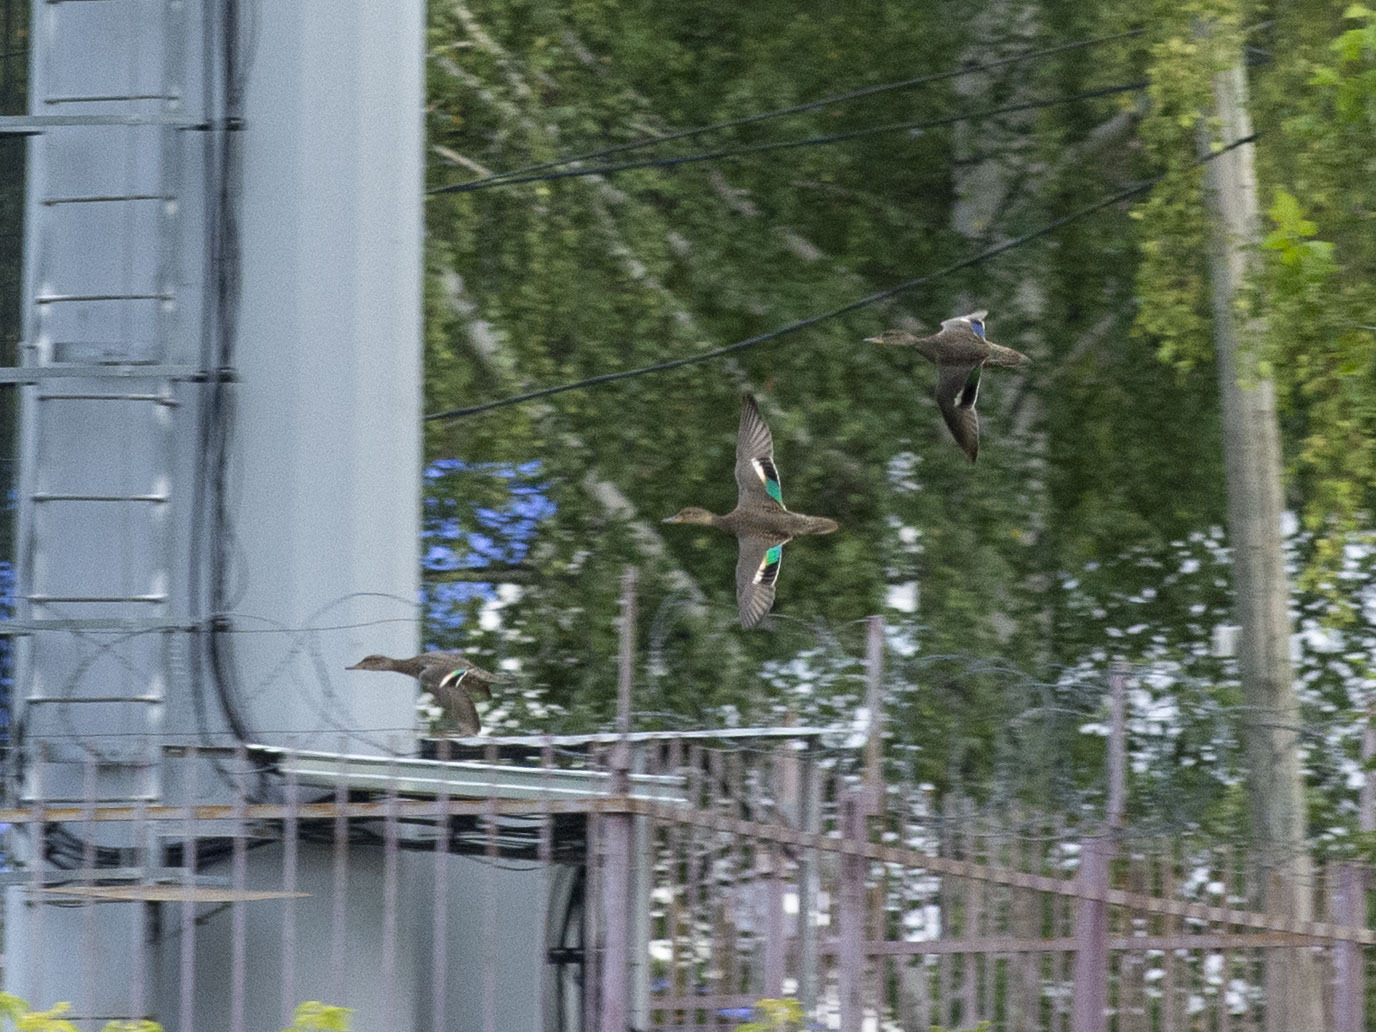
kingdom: Animalia
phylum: Chordata
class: Aves
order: Anseriformes
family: Anatidae
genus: Anas
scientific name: Anas crecca
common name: Eurasian teal
